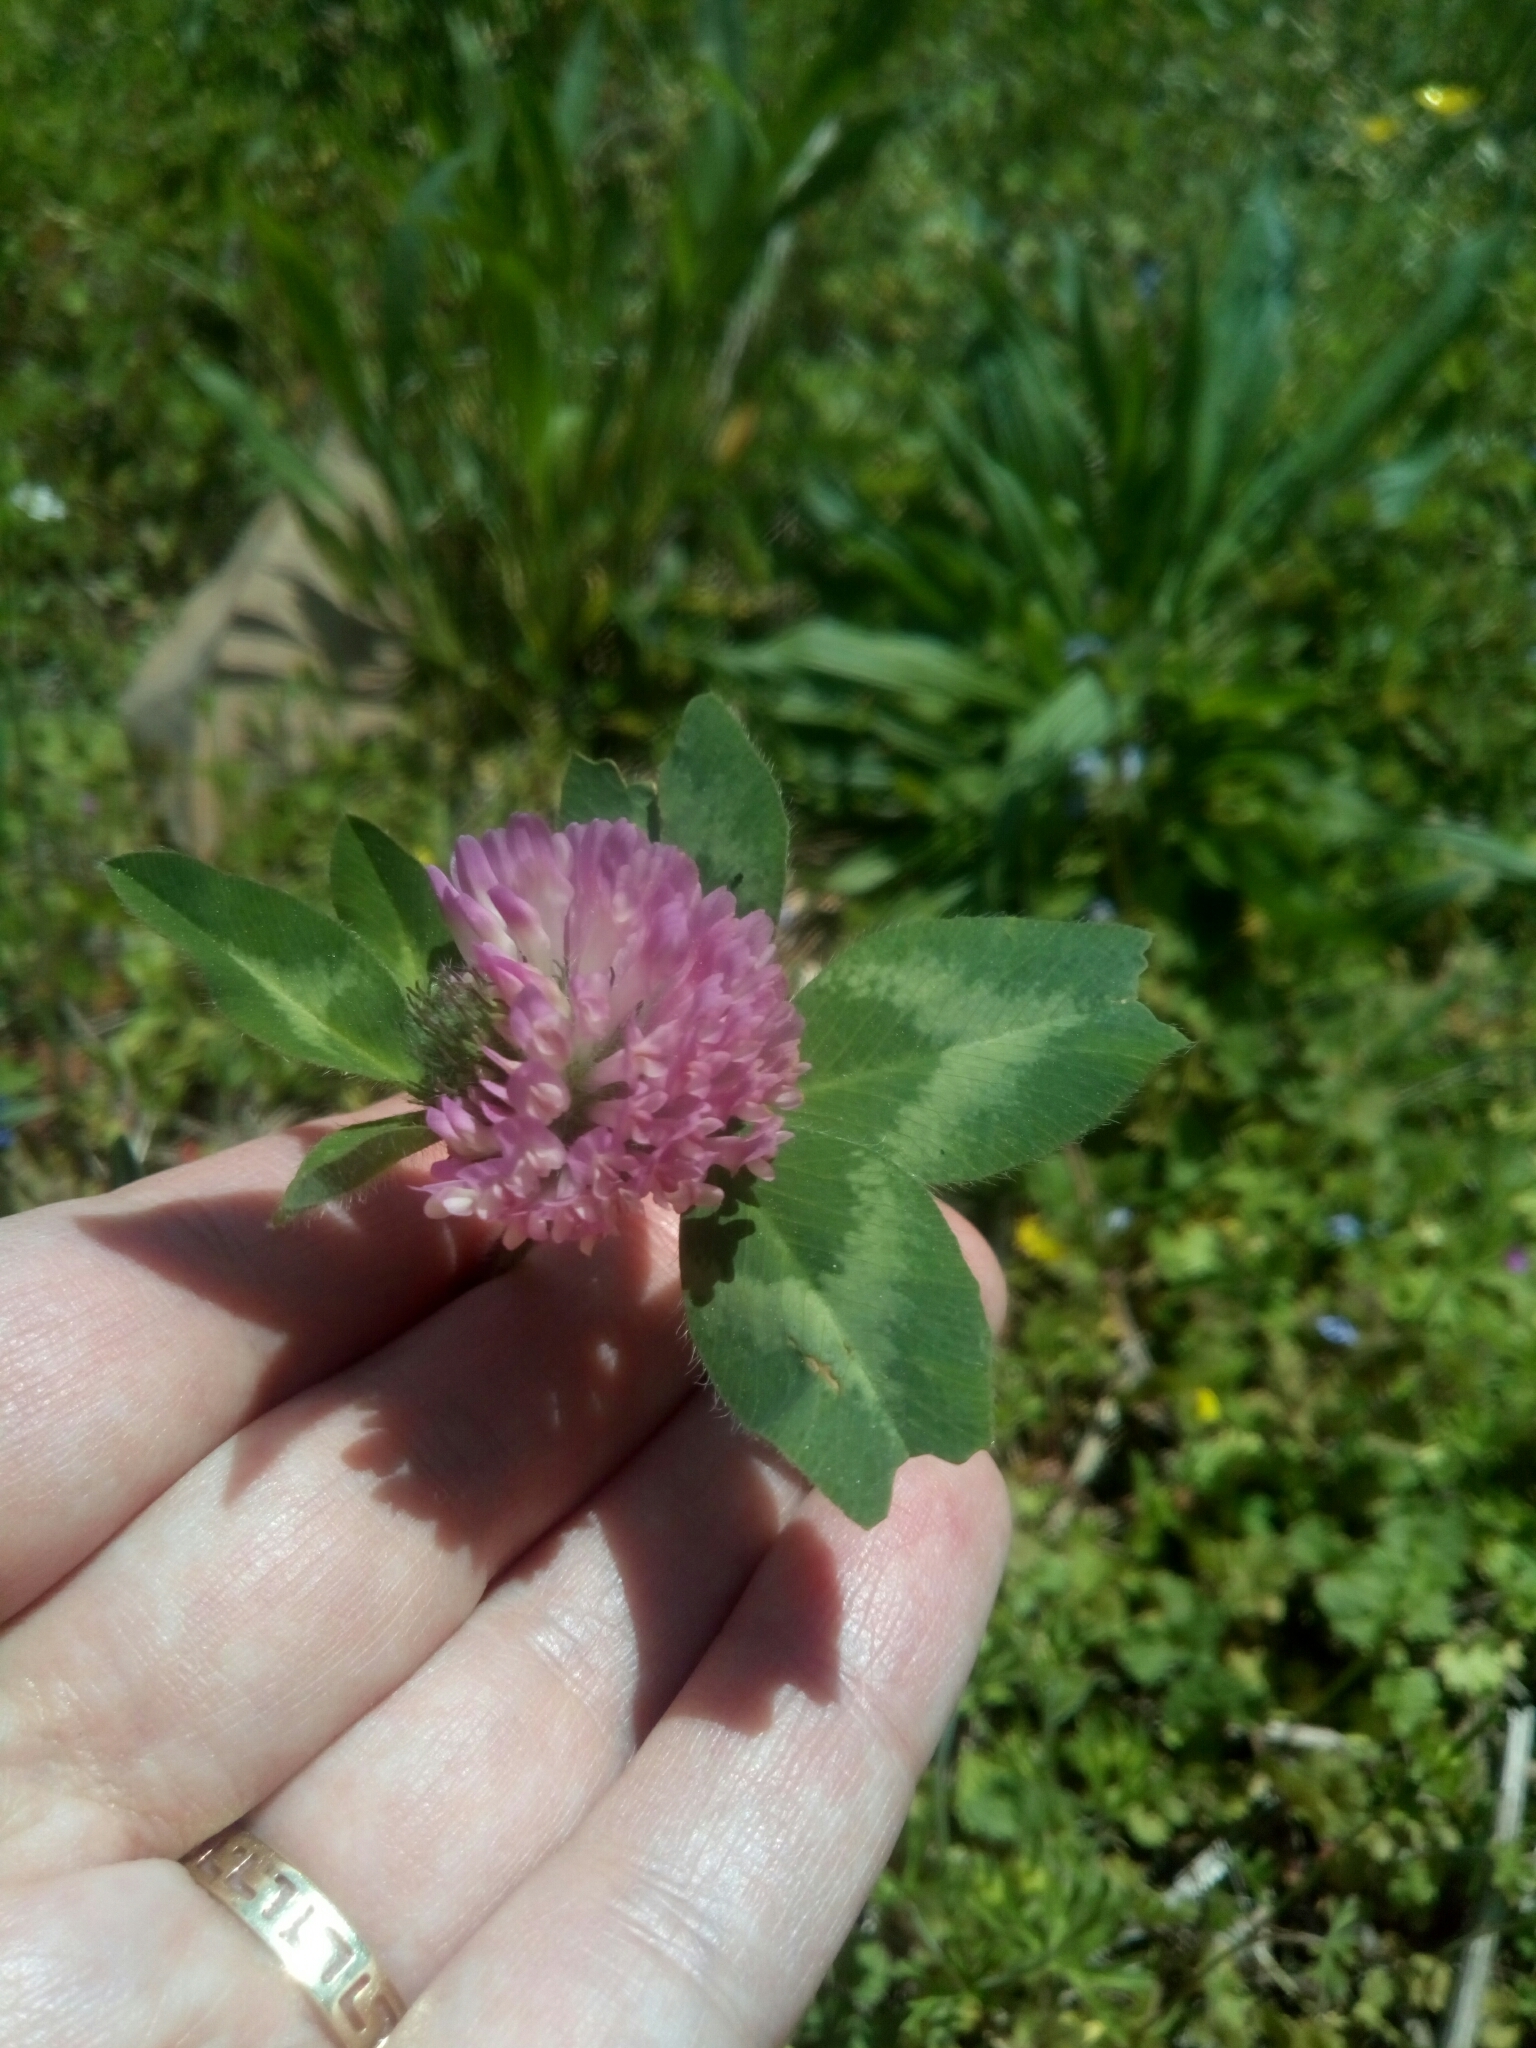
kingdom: Plantae
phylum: Tracheophyta
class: Magnoliopsida
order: Fabales
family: Fabaceae
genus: Trifolium
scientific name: Trifolium pratense
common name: Red clover
